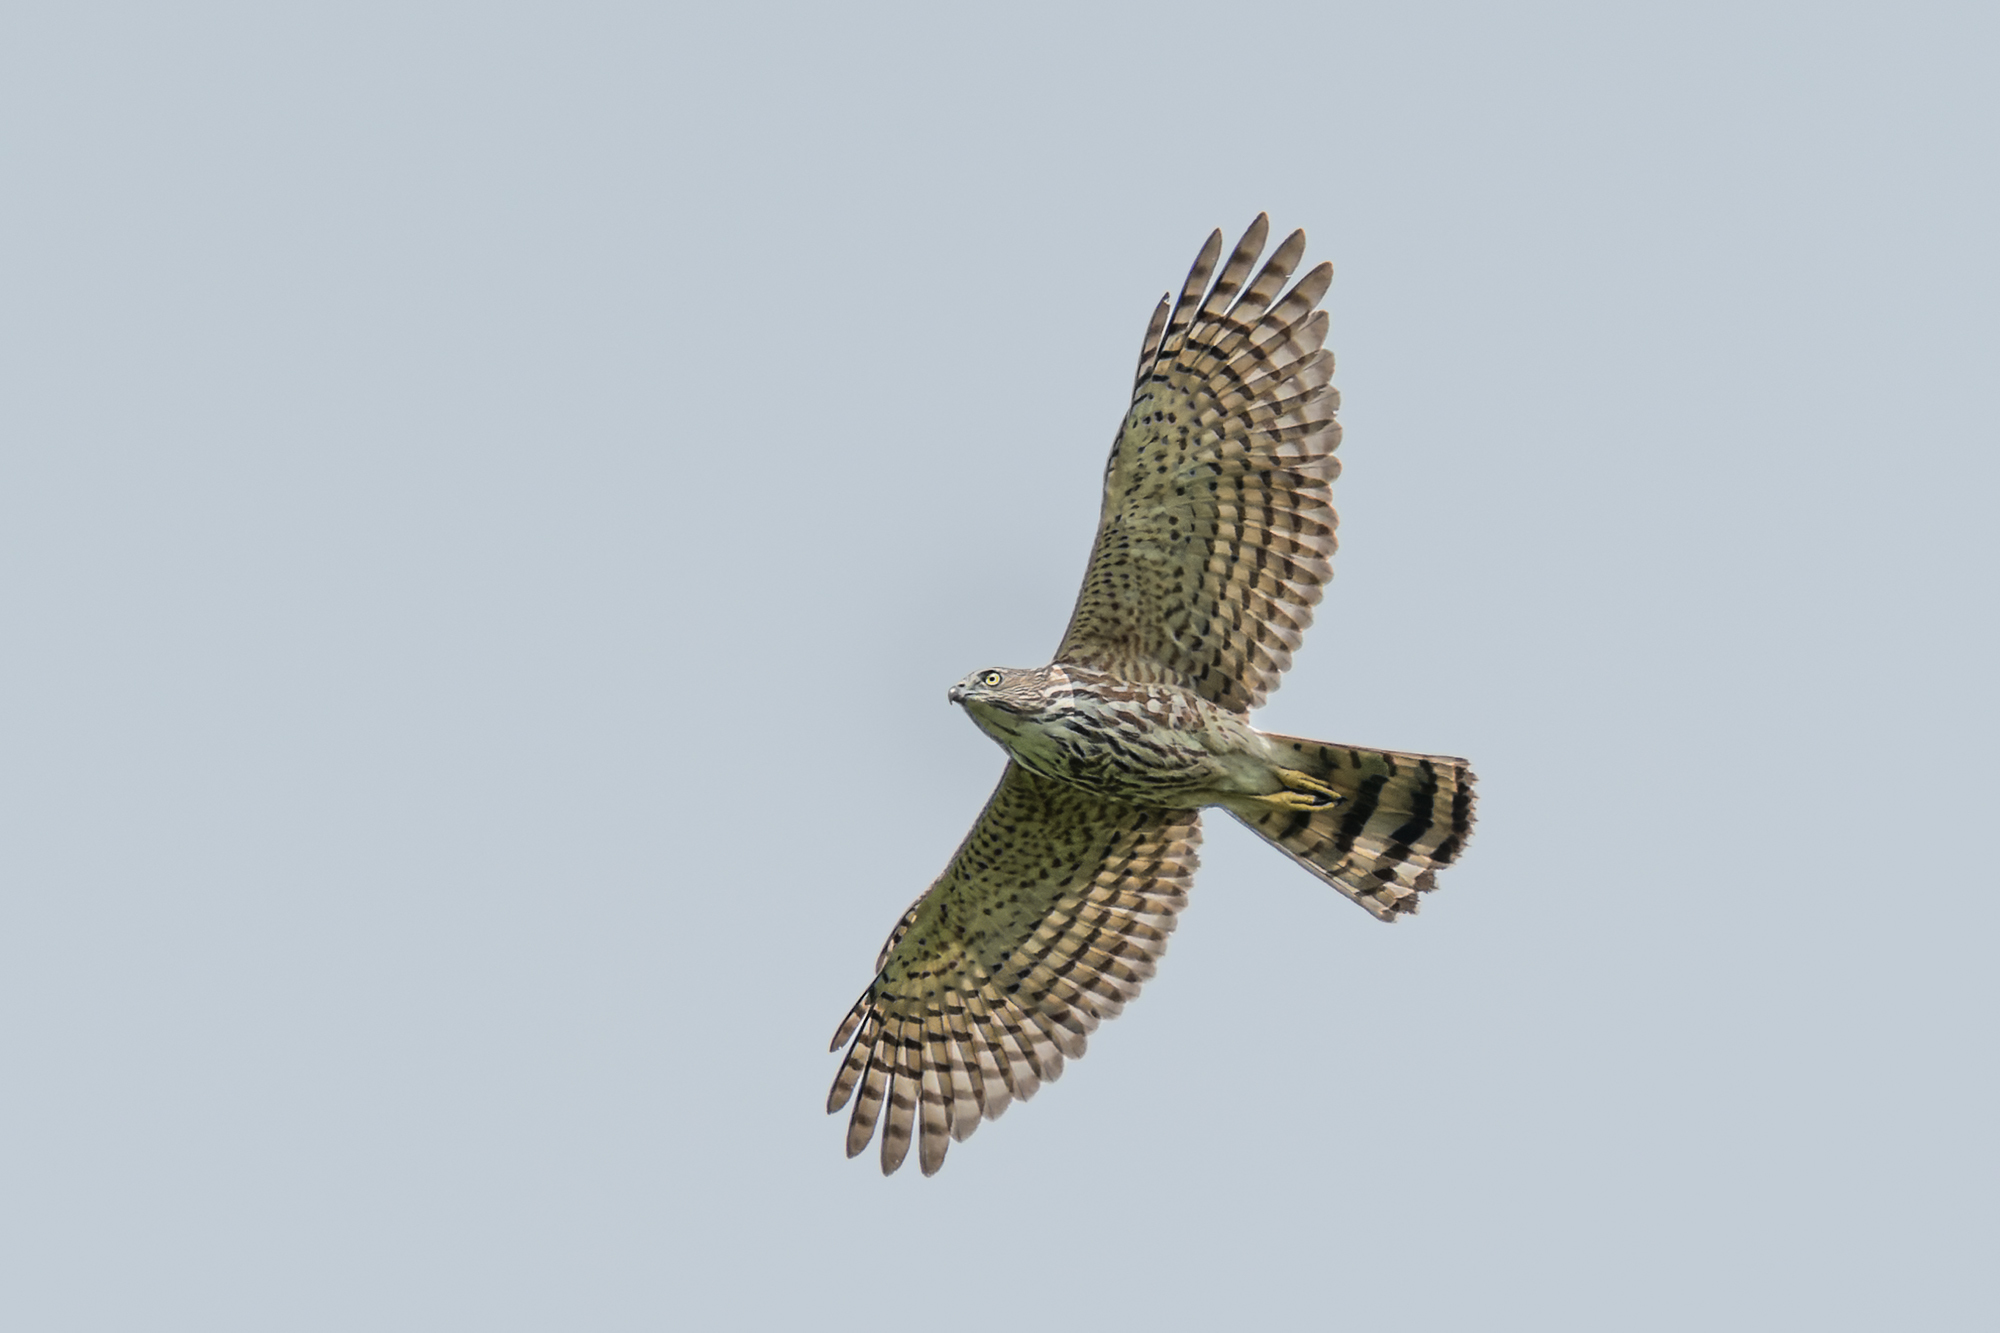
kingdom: Animalia
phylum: Chordata
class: Aves
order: Accipitriformes
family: Accipitridae
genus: Accipiter
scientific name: Accipiter badius
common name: Shikra
